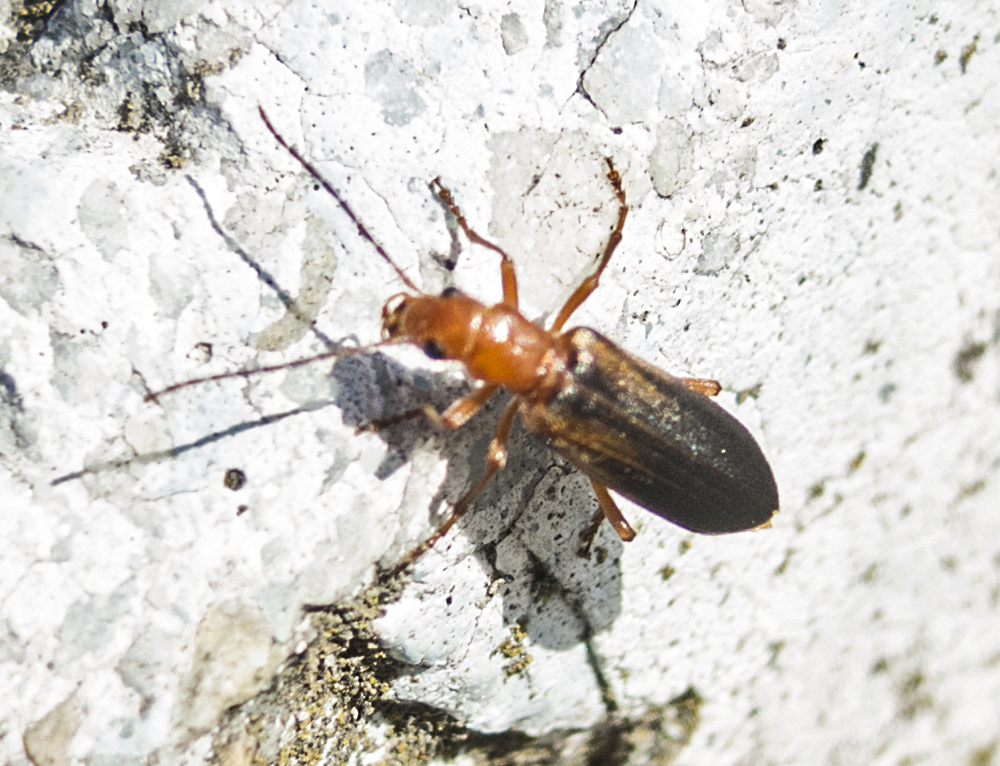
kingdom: Animalia
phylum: Arthropoda
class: Insecta
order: Coleoptera
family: Oedemeridae
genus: Nacerdes
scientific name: Nacerdes melanura
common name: Wharf borer
